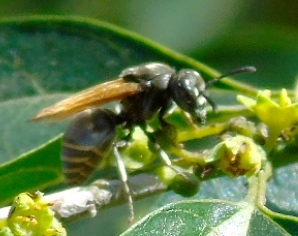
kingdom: Animalia
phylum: Arthropoda
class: Insecta
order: Hymenoptera
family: Vespidae
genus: Brachygastra
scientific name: Brachygastra mellifica
